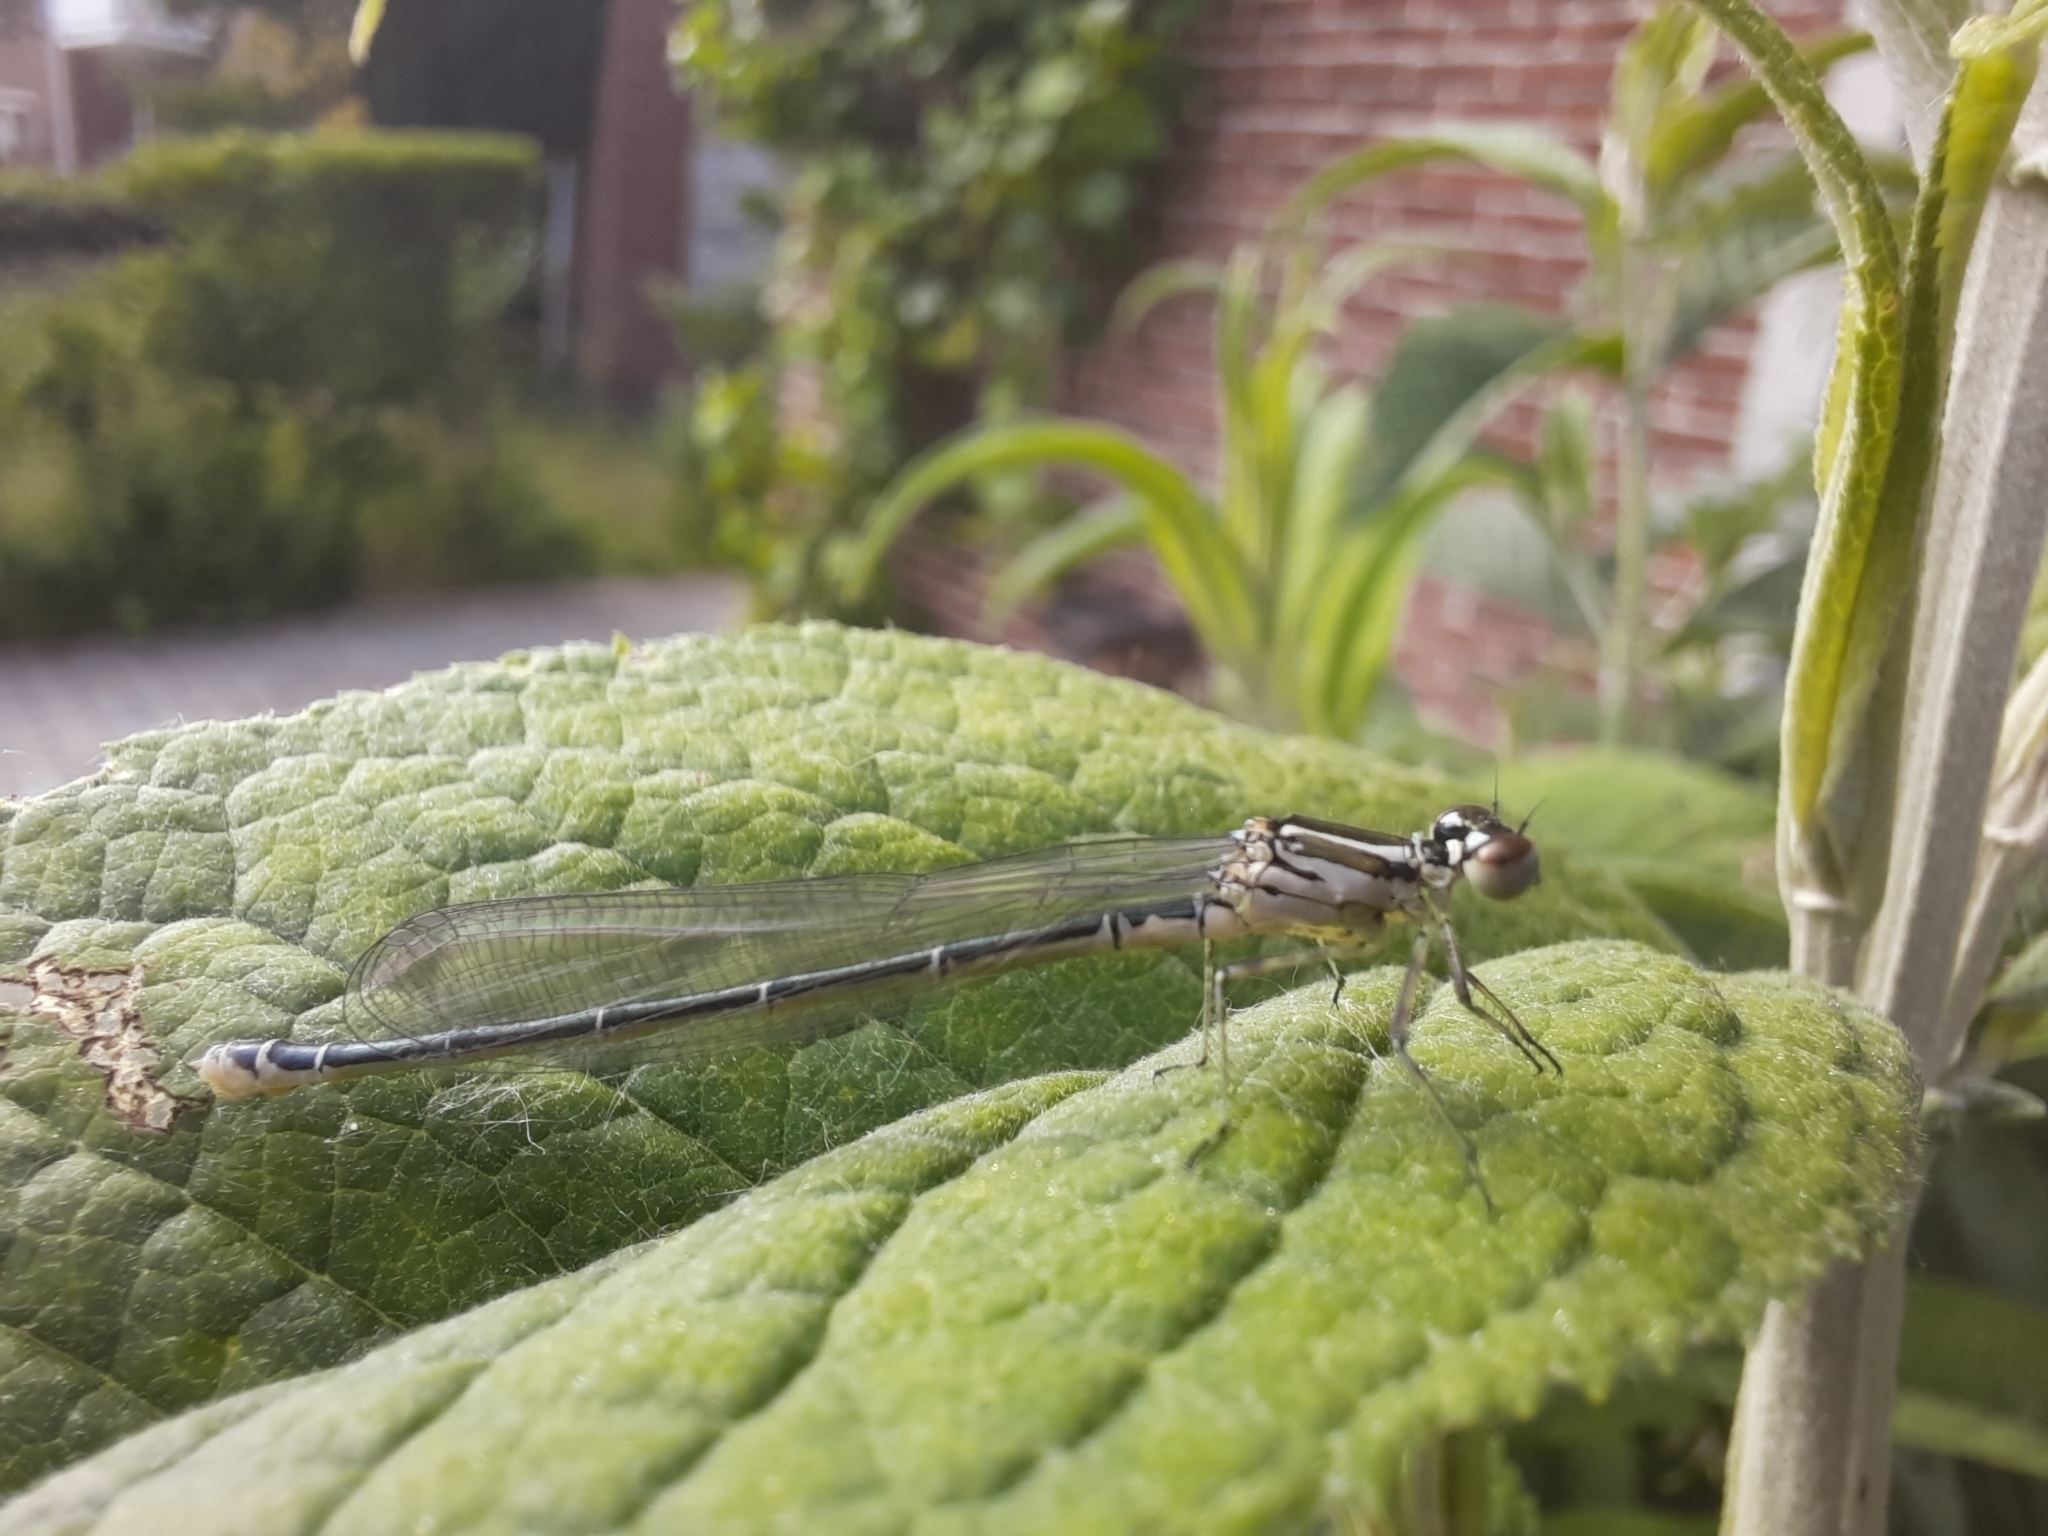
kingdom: Animalia
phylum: Arthropoda
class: Insecta
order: Odonata
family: Coenagrionidae
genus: Coenagrion
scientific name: Coenagrion puella
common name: Azure damselfly
